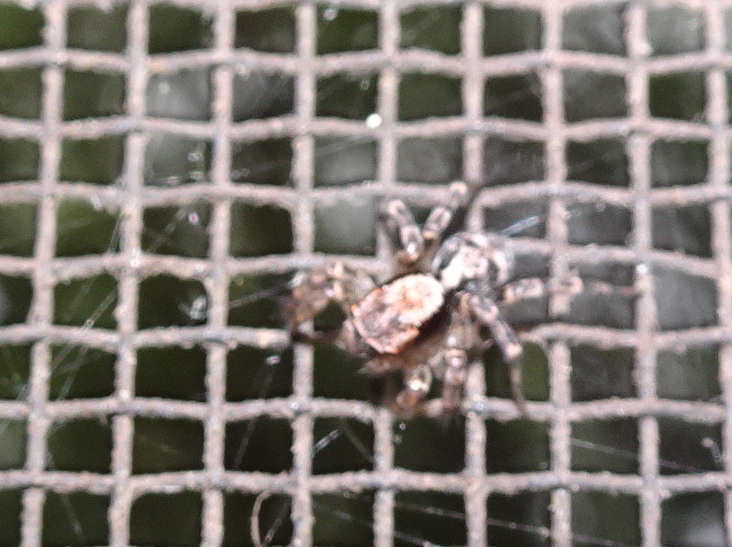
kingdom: Animalia
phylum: Arthropoda
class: Arachnida
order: Araneae
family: Salticidae
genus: Naphrys
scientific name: Naphrys pulex
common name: Flea jumping spider
